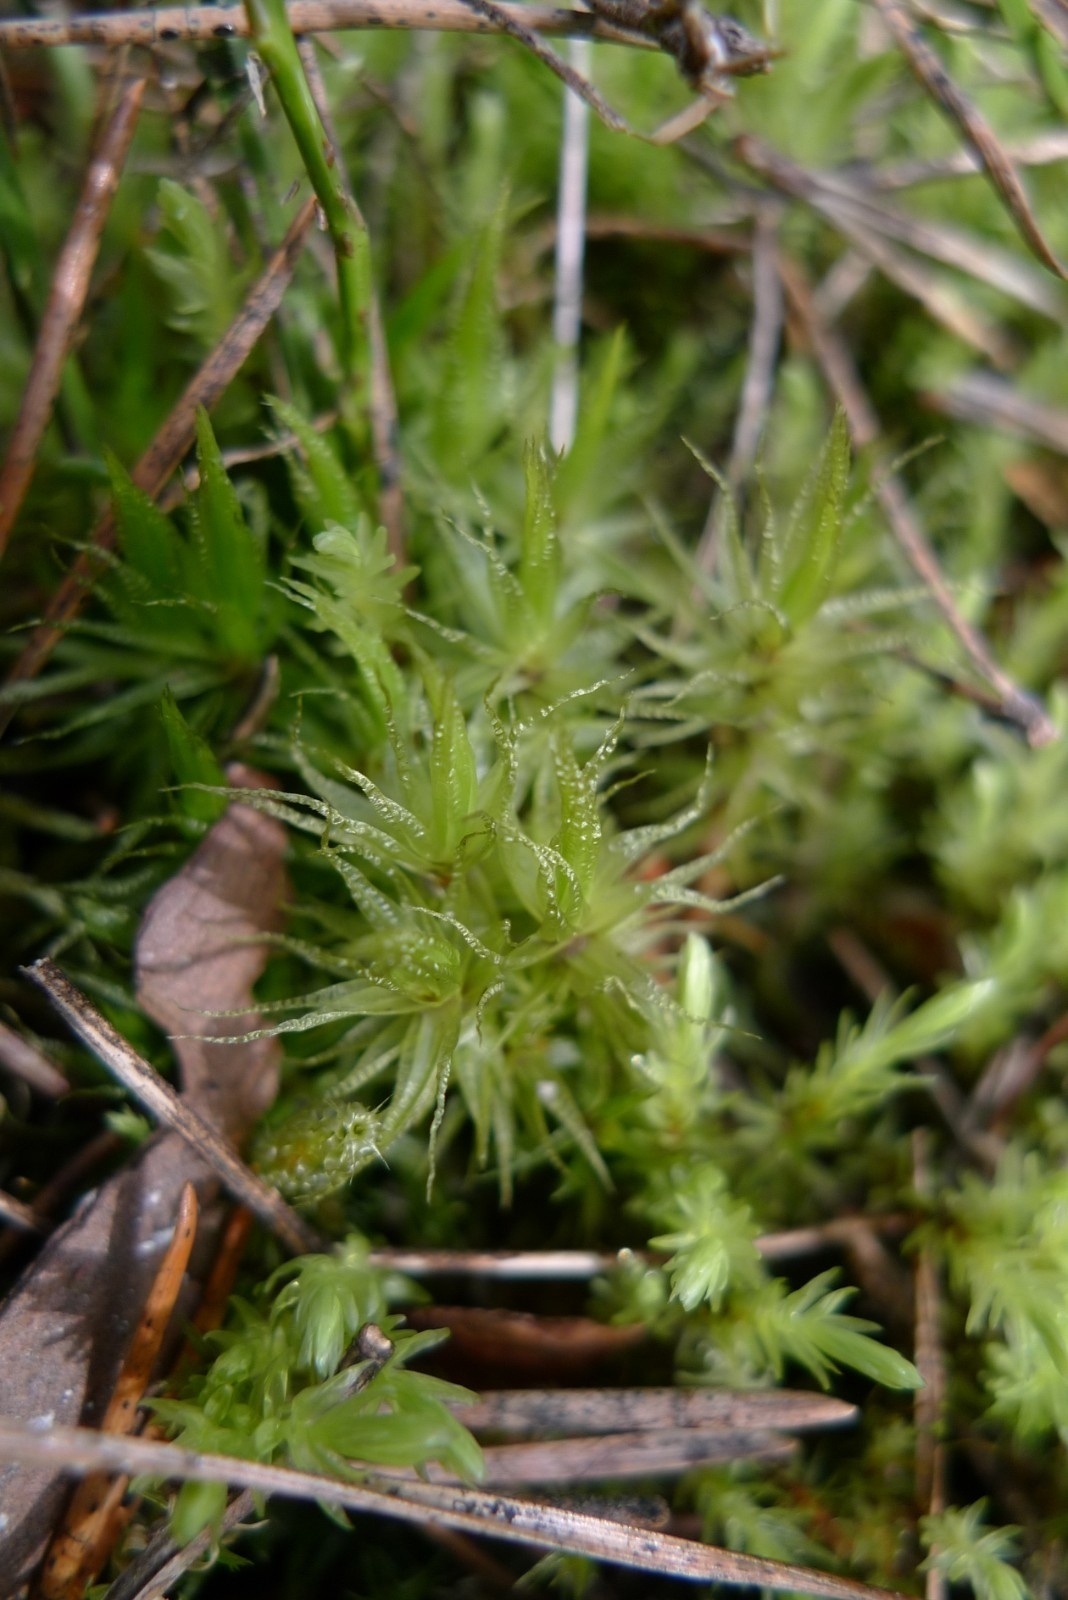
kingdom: Plantae
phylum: Bryophyta
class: Bryopsida
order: Dicranales
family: Dicranaceae
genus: Dicranum
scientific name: Dicranum polysetum
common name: Rugose fork-moss
